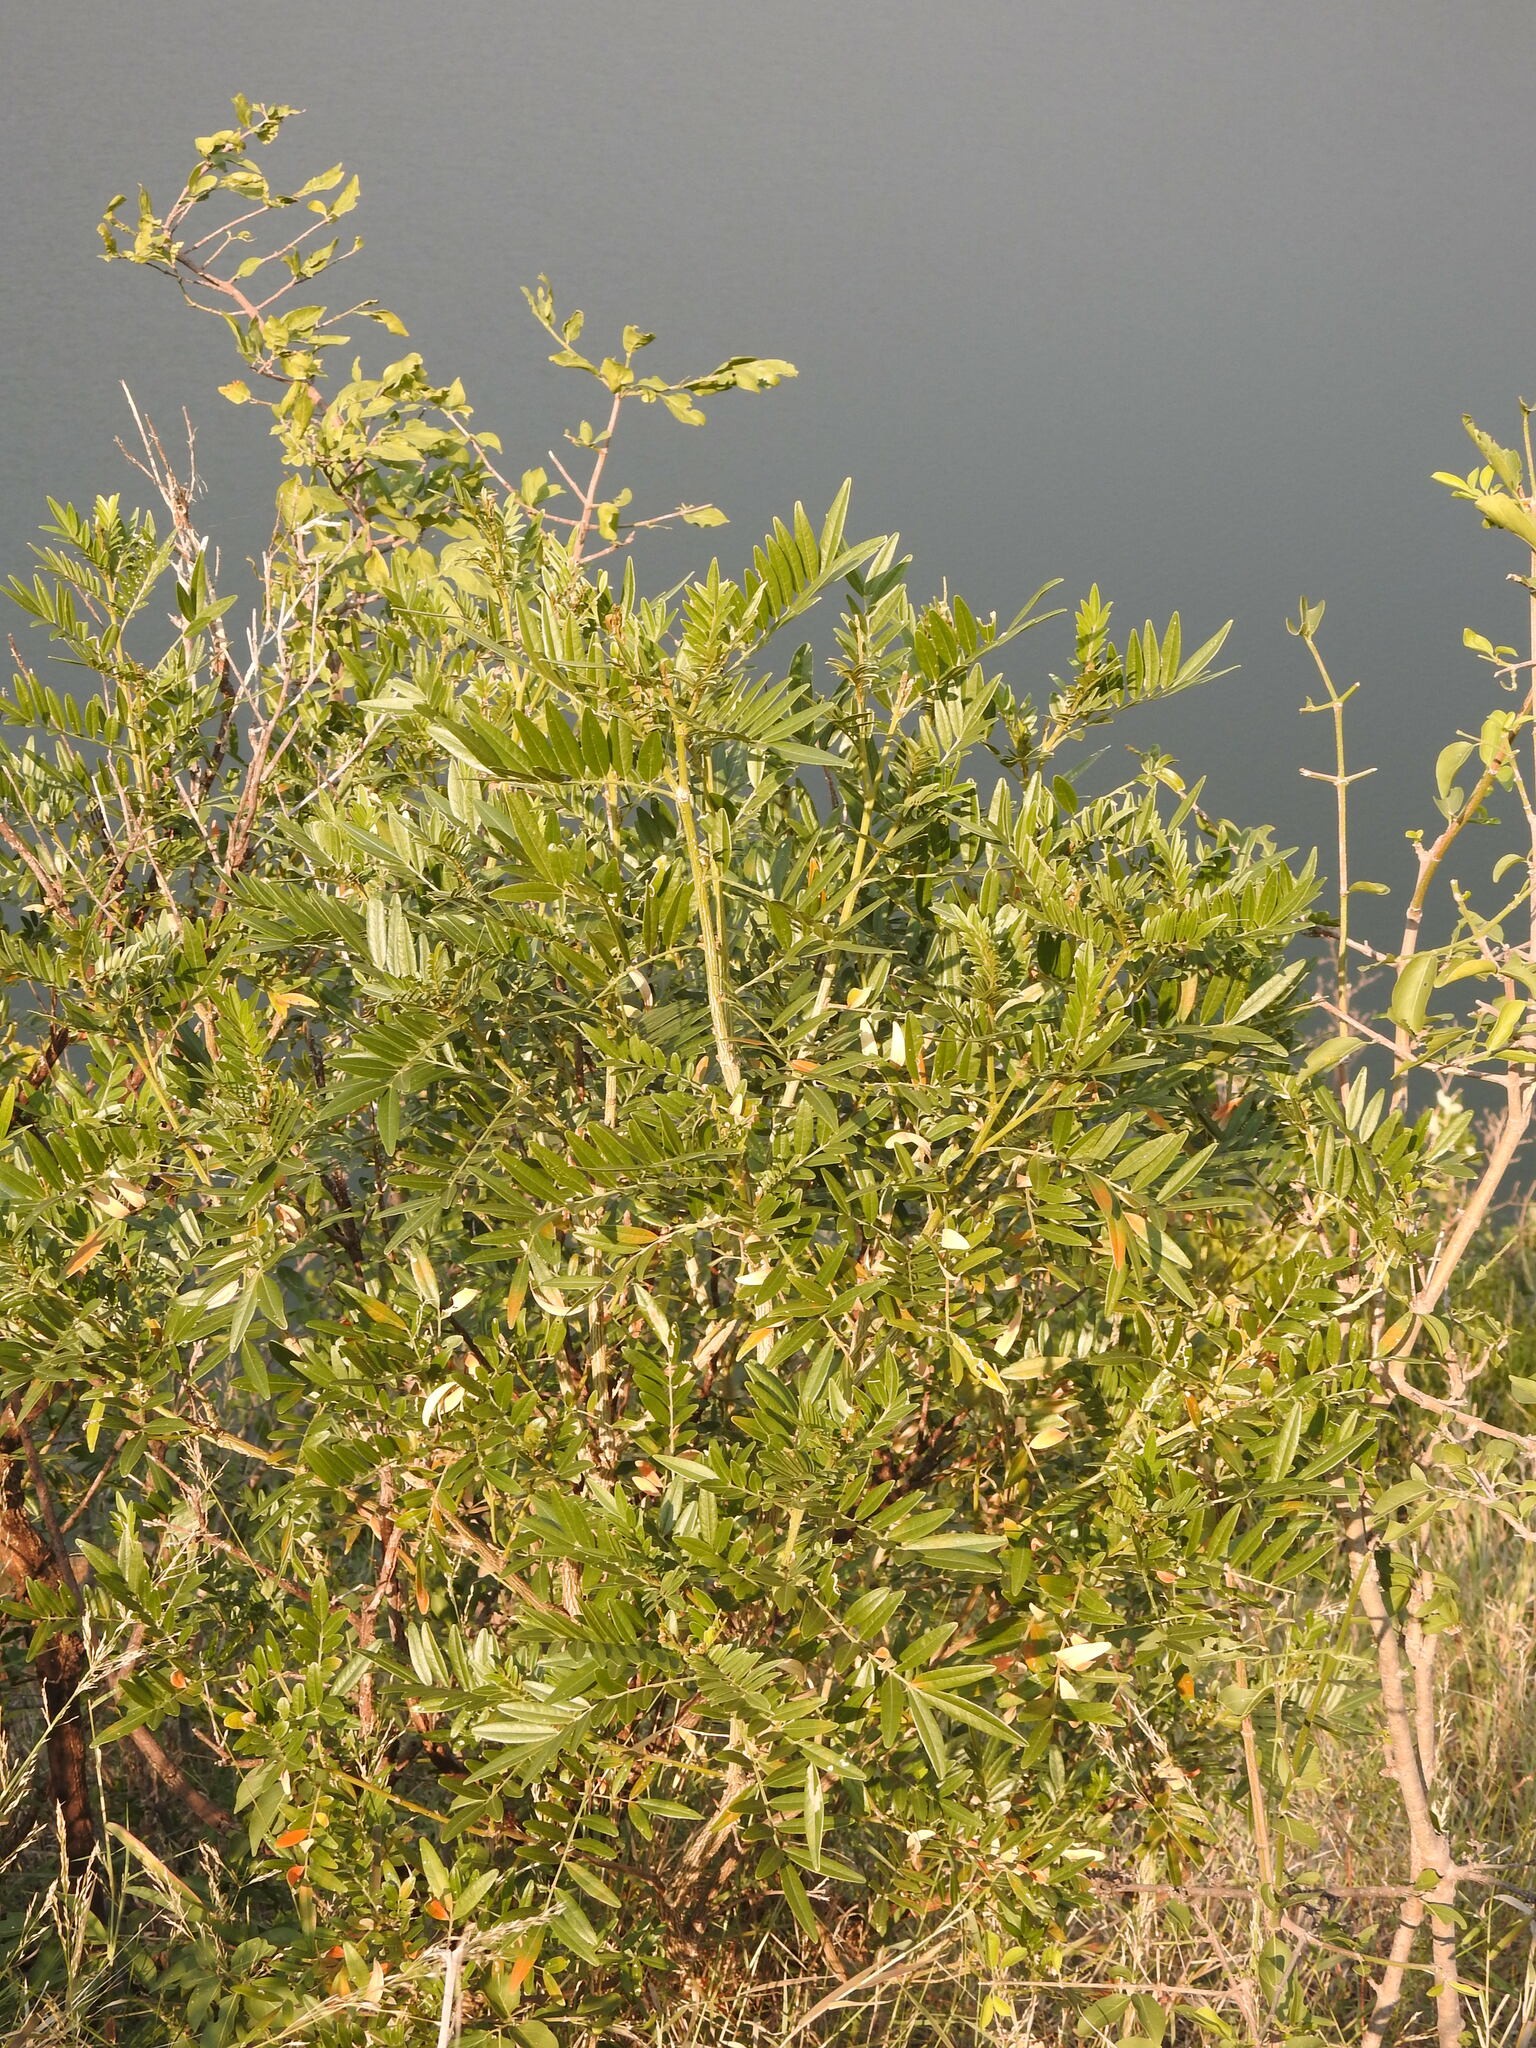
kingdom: Plantae
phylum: Tracheophyta
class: Magnoliopsida
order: Fabales
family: Fabaceae
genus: Mundulea
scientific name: Mundulea sericea
